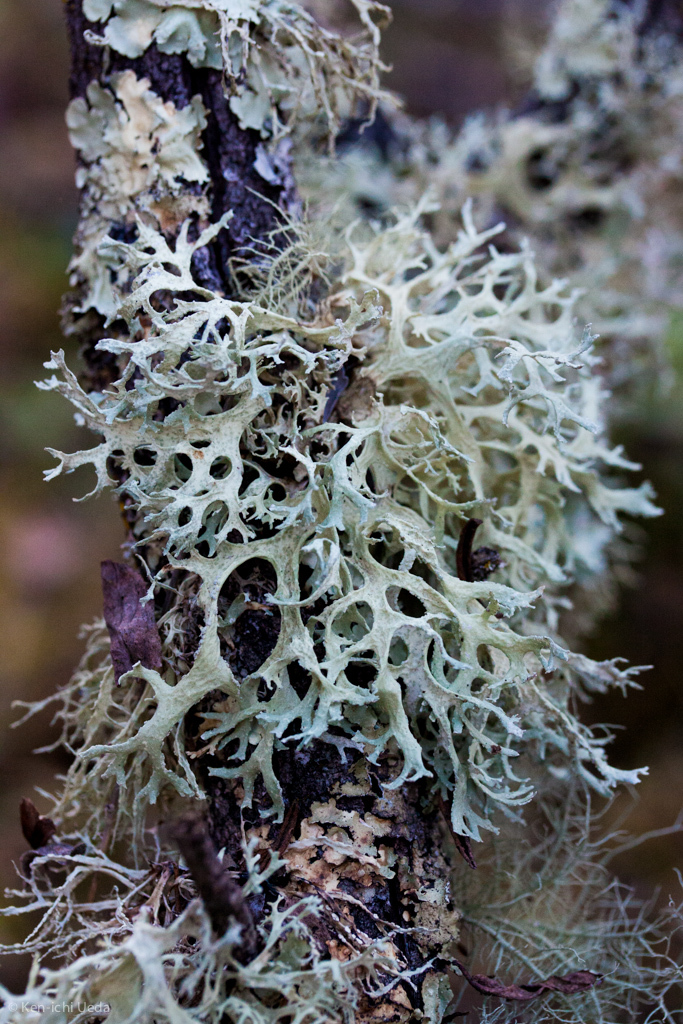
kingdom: Fungi
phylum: Ascomycota
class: Lecanoromycetes
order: Lecanorales
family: Parmeliaceae
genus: Evernia
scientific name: Evernia prunastri
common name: Oak moss
